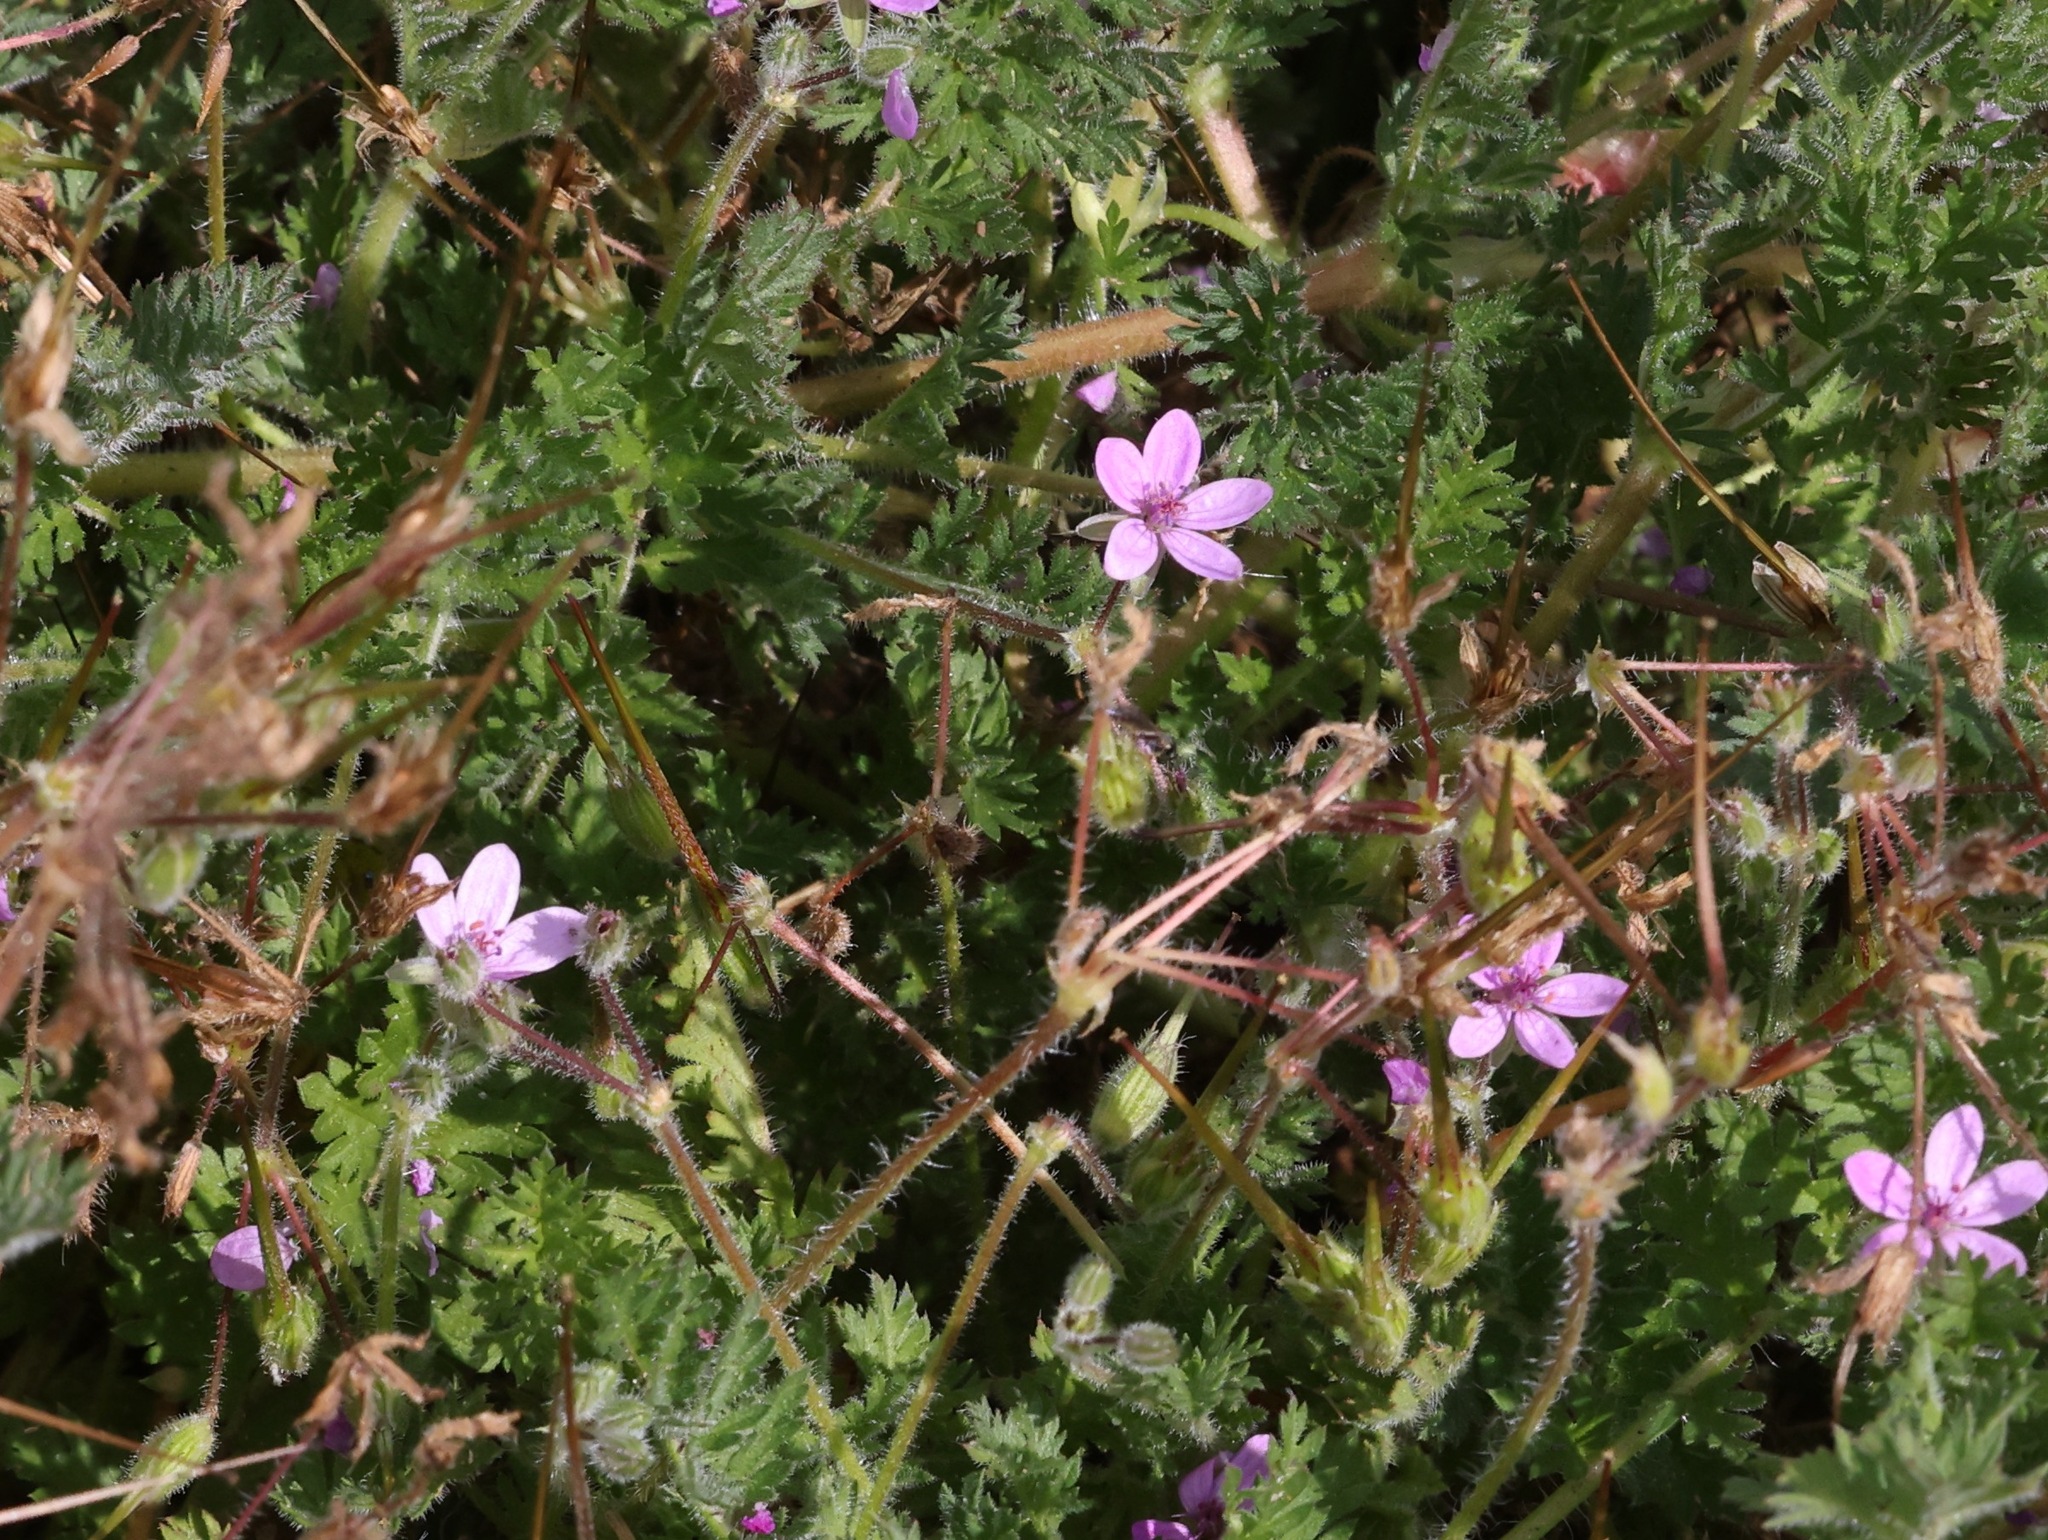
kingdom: Plantae
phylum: Tracheophyta
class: Magnoliopsida
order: Geraniales
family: Geraniaceae
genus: Erodium
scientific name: Erodium cicutarium
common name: Common stork's-bill
